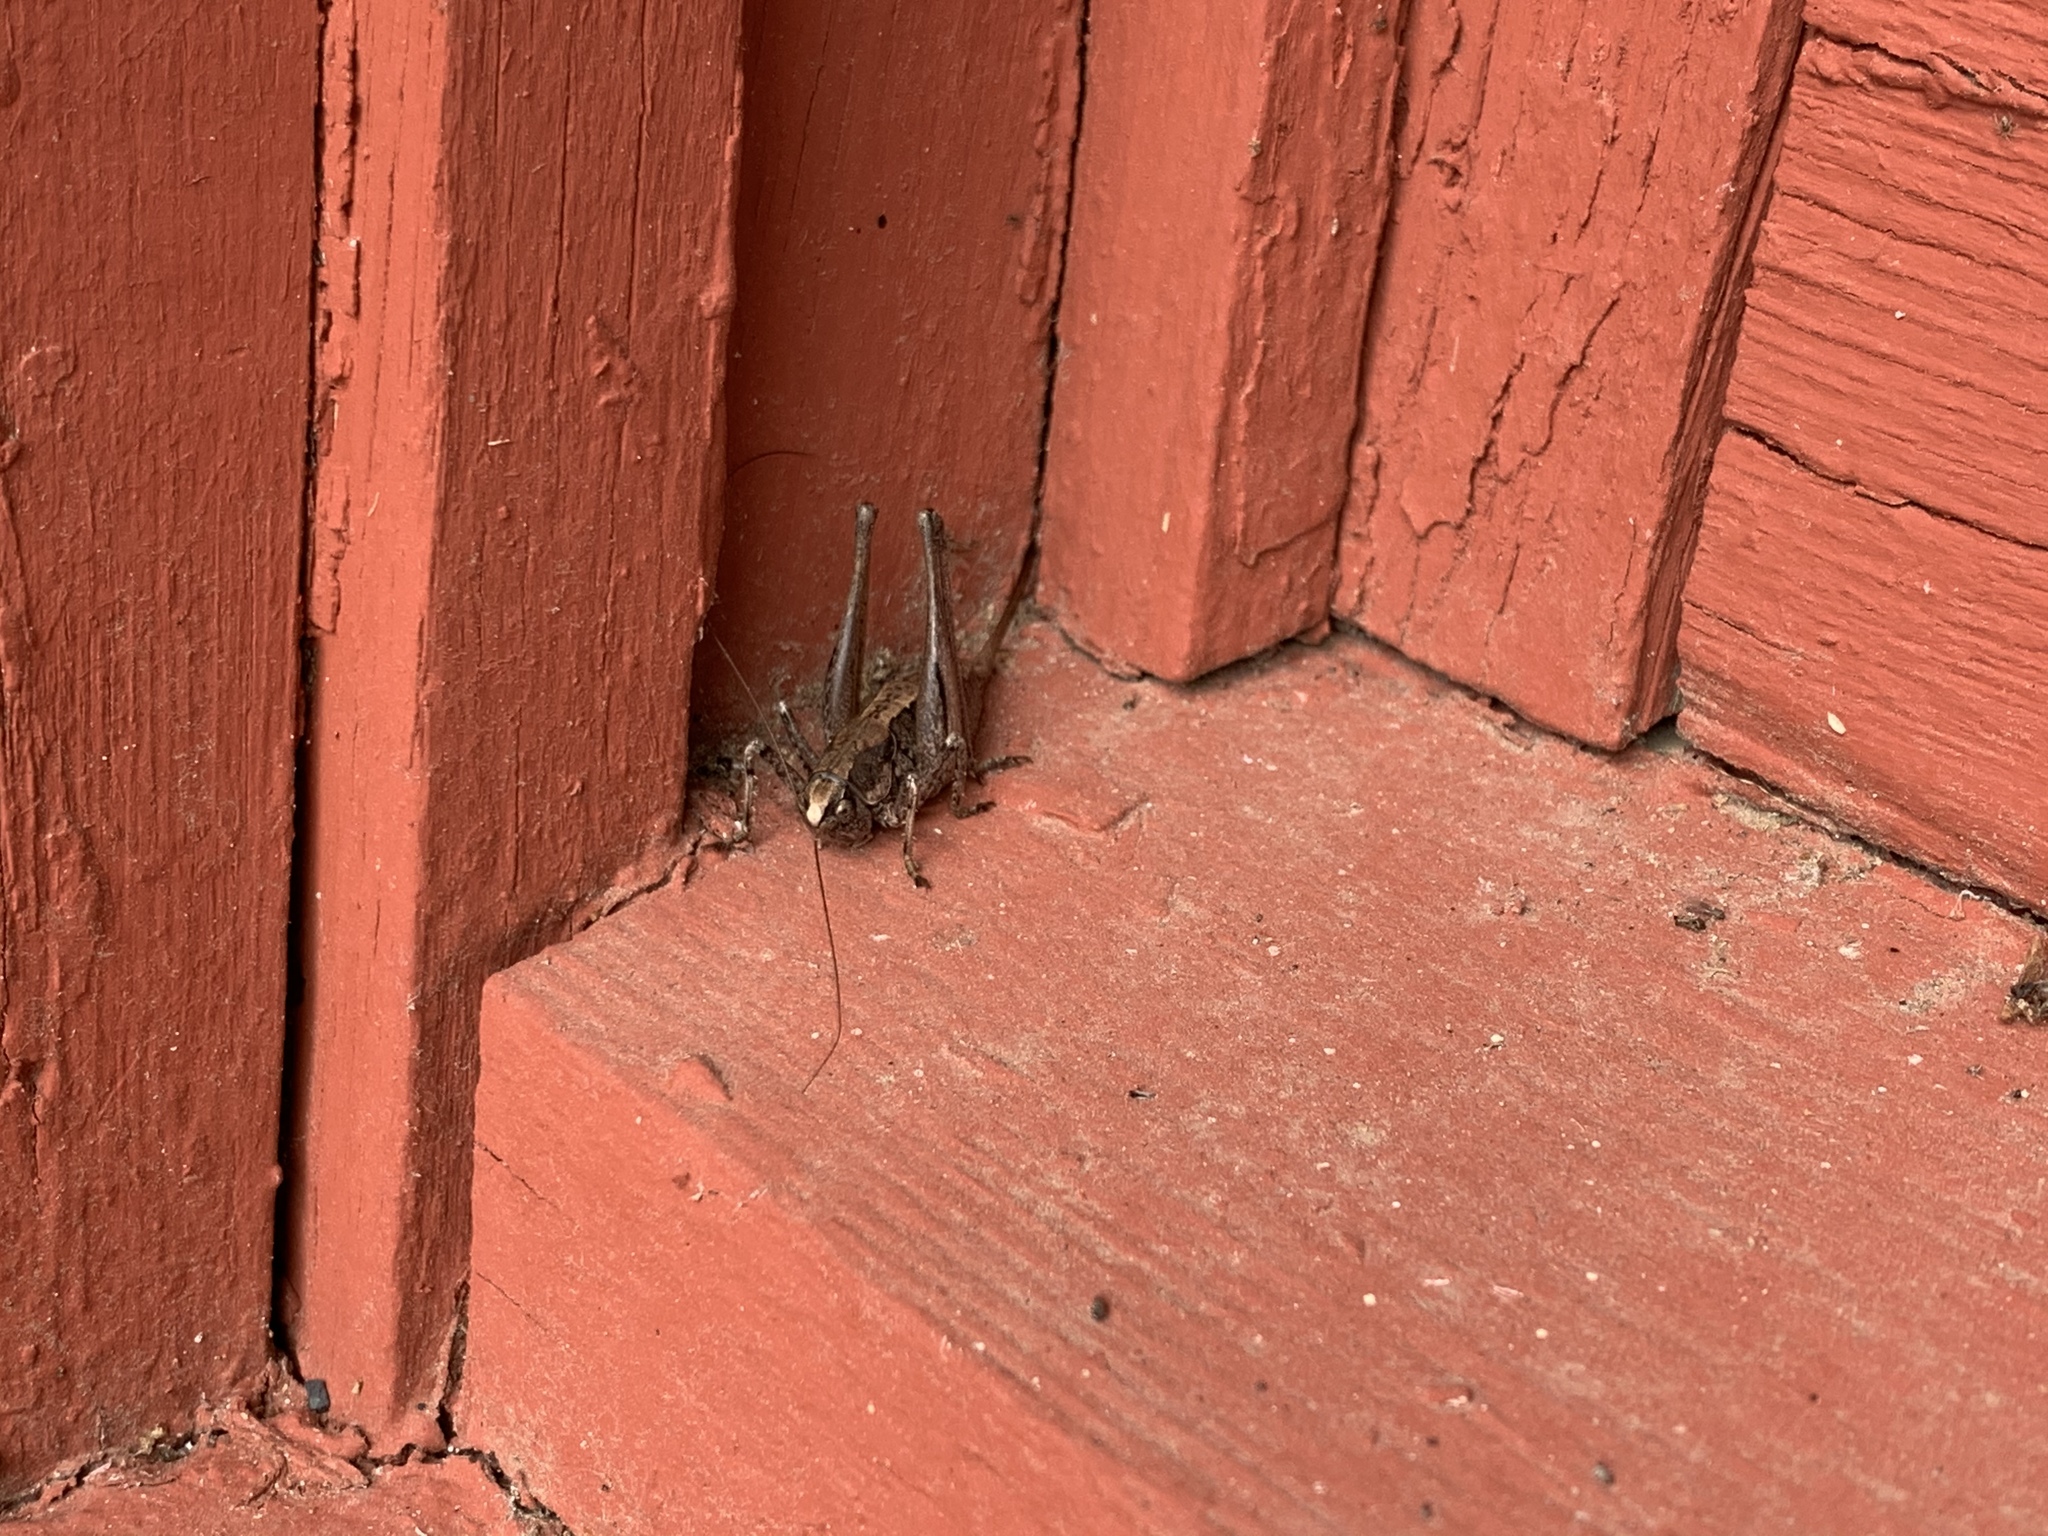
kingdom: Animalia
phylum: Arthropoda
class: Insecta
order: Orthoptera
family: Tettigoniidae
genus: Eremopedes
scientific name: Eremopedes ephippiatus
